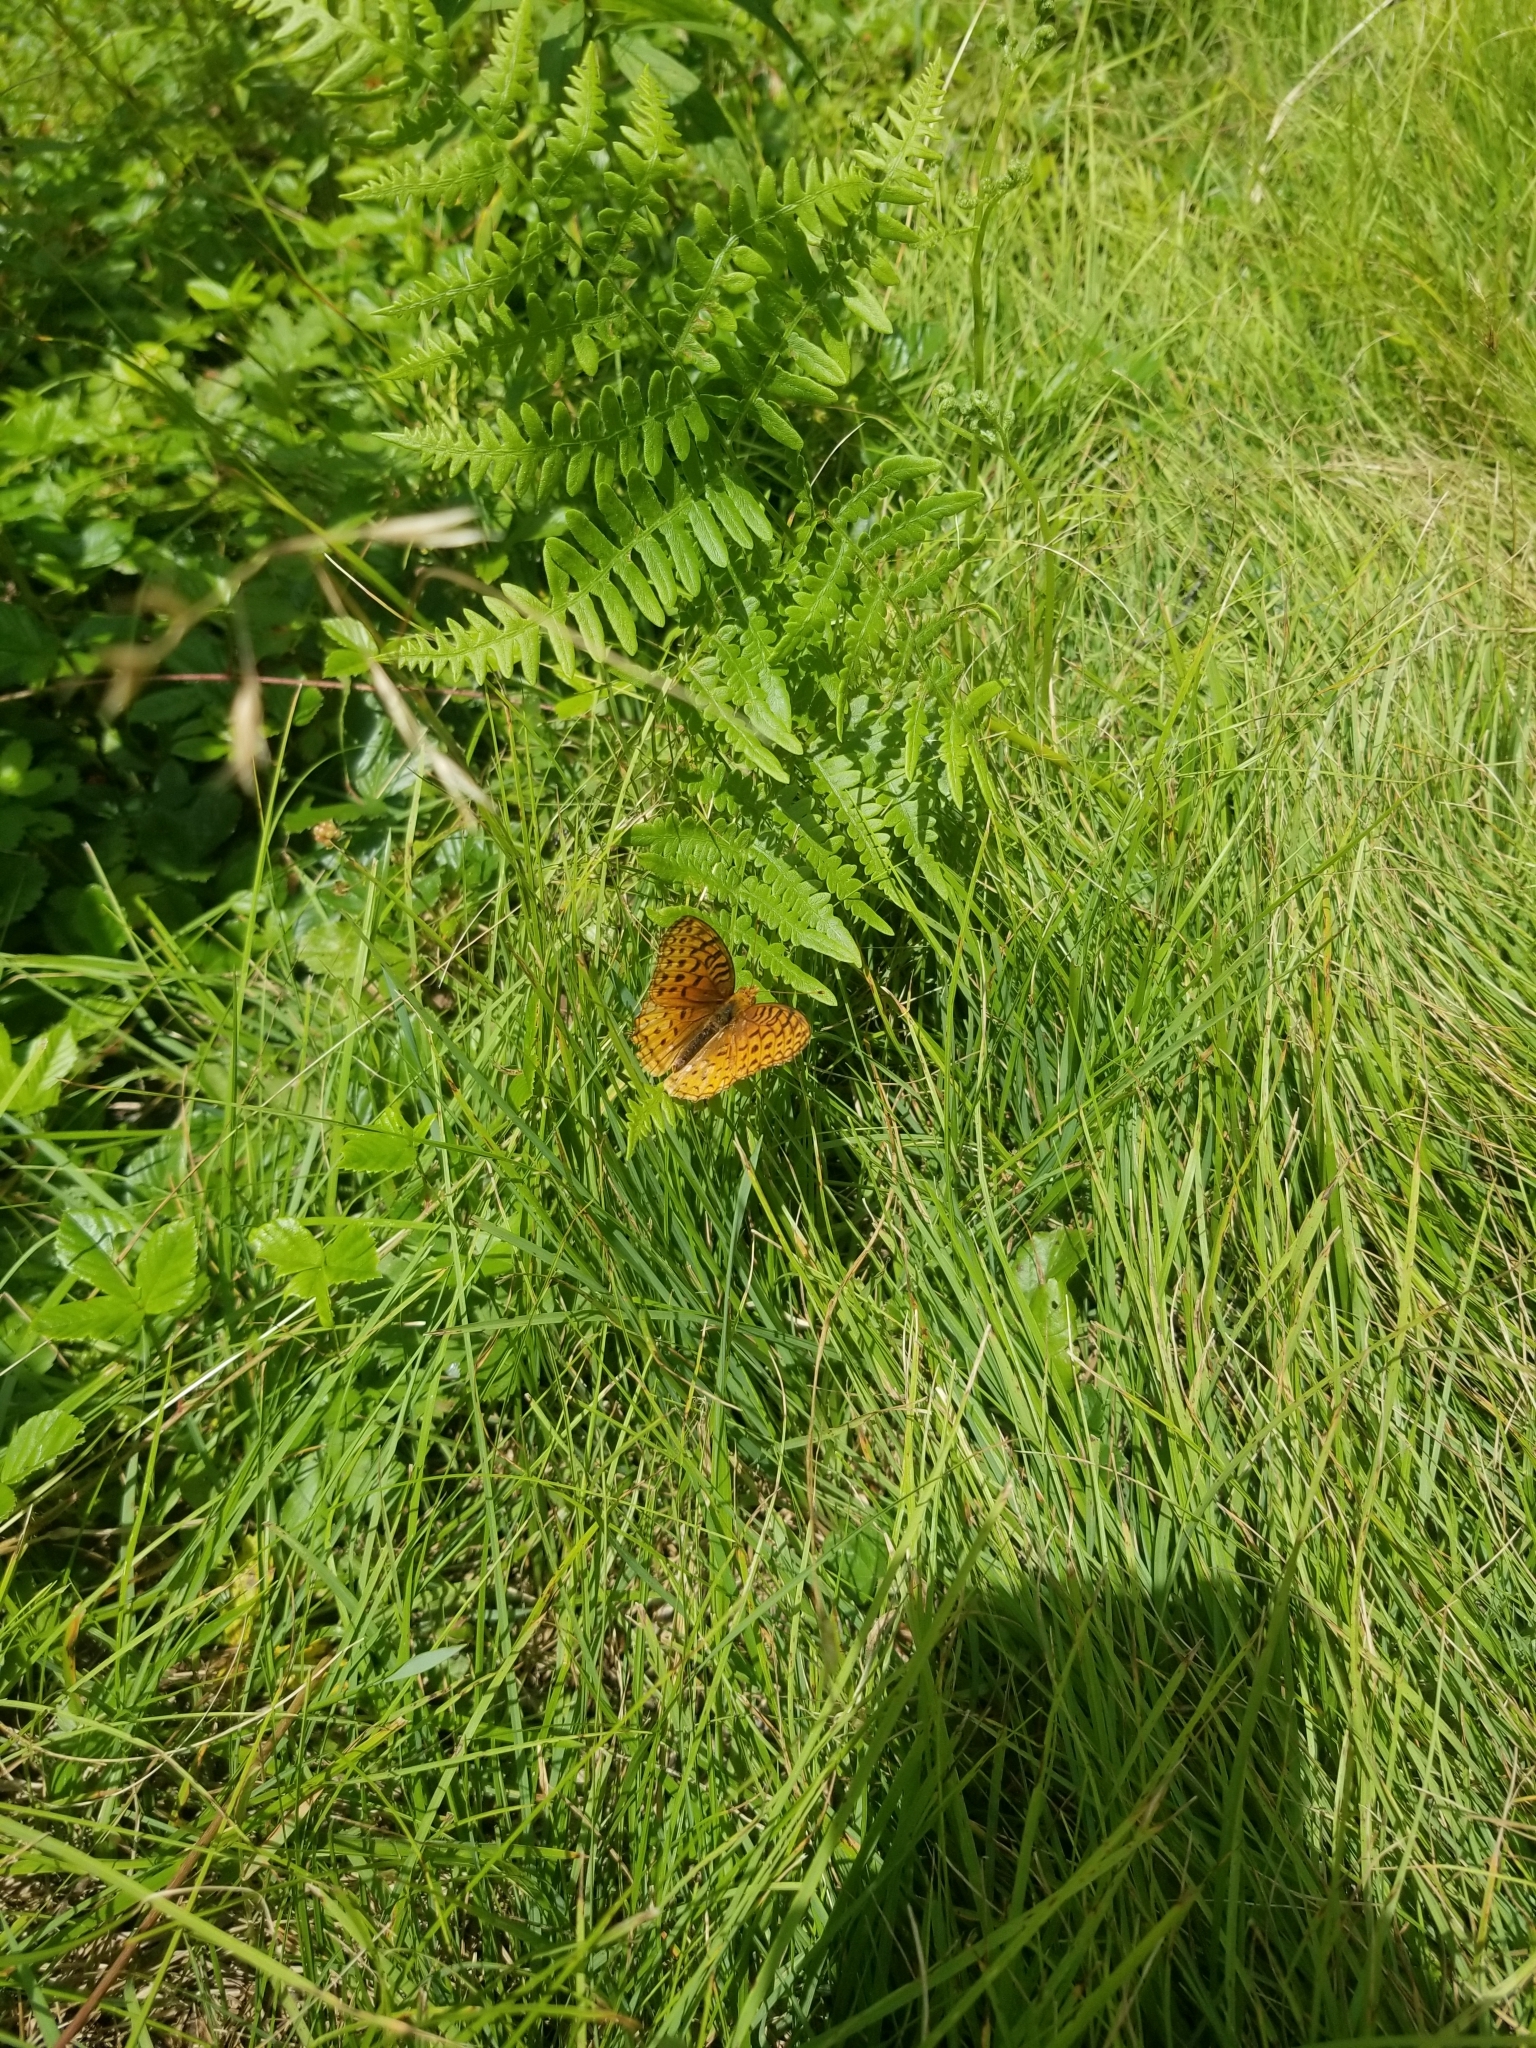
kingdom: Animalia
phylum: Arthropoda
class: Insecta
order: Lepidoptera
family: Nymphalidae
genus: Speyeria
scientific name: Speyeria aphrodite
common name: Aphrodite friitllary
